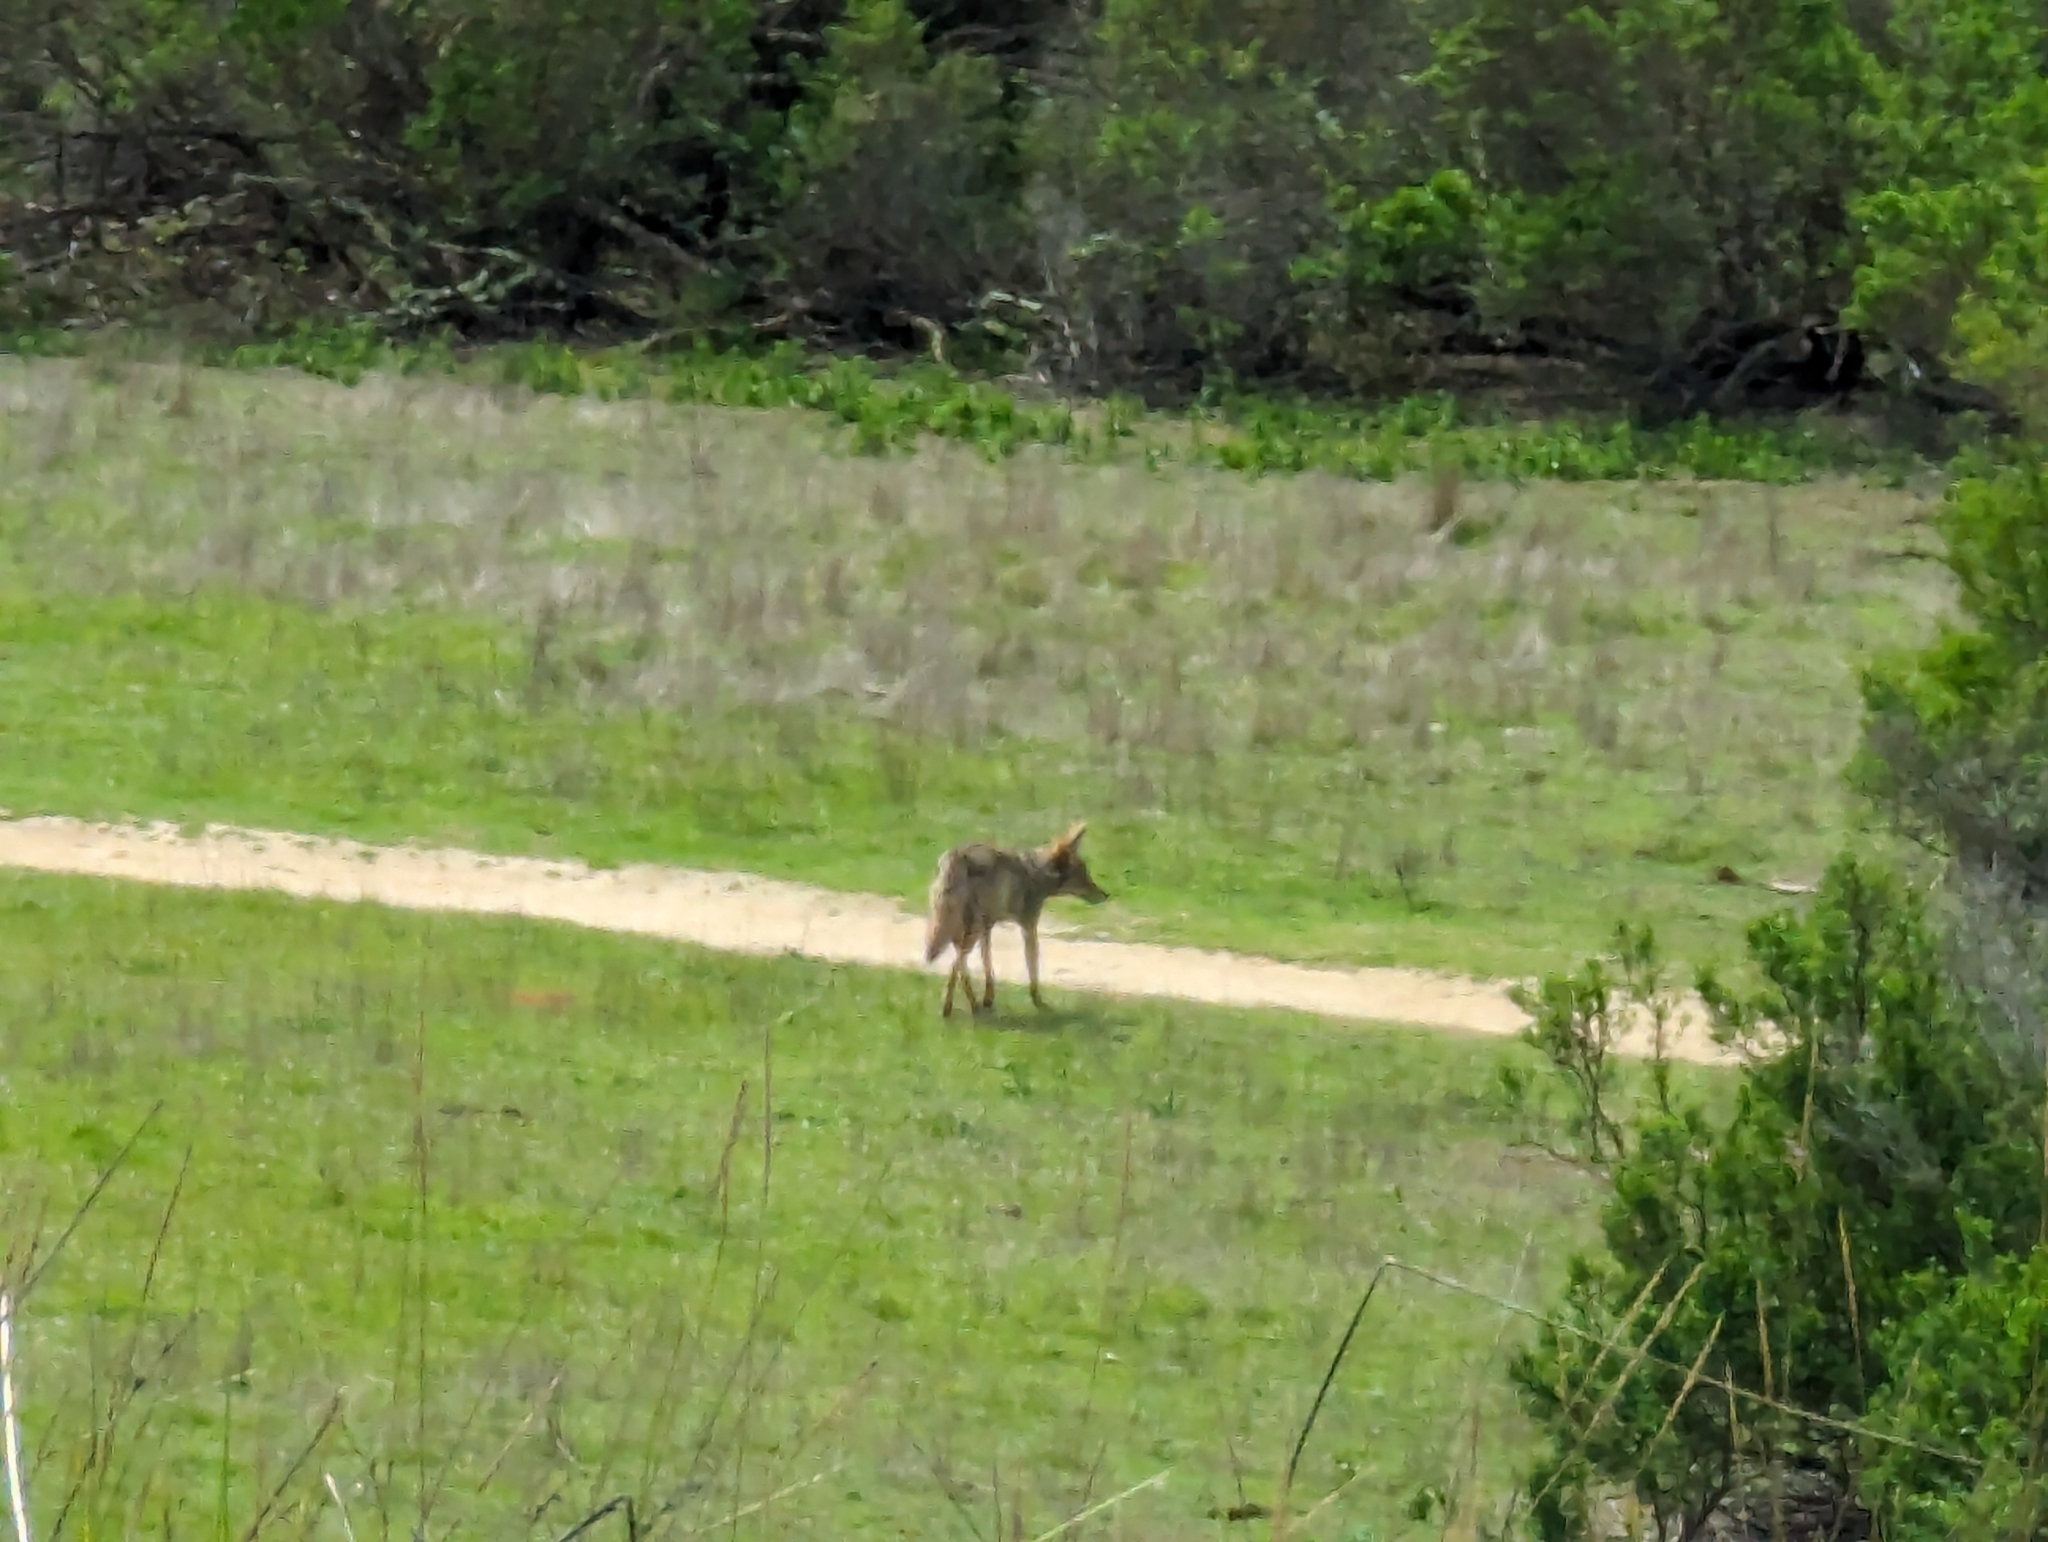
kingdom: Animalia
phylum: Chordata
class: Mammalia
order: Carnivora
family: Canidae
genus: Canis
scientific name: Canis latrans
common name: Coyote
